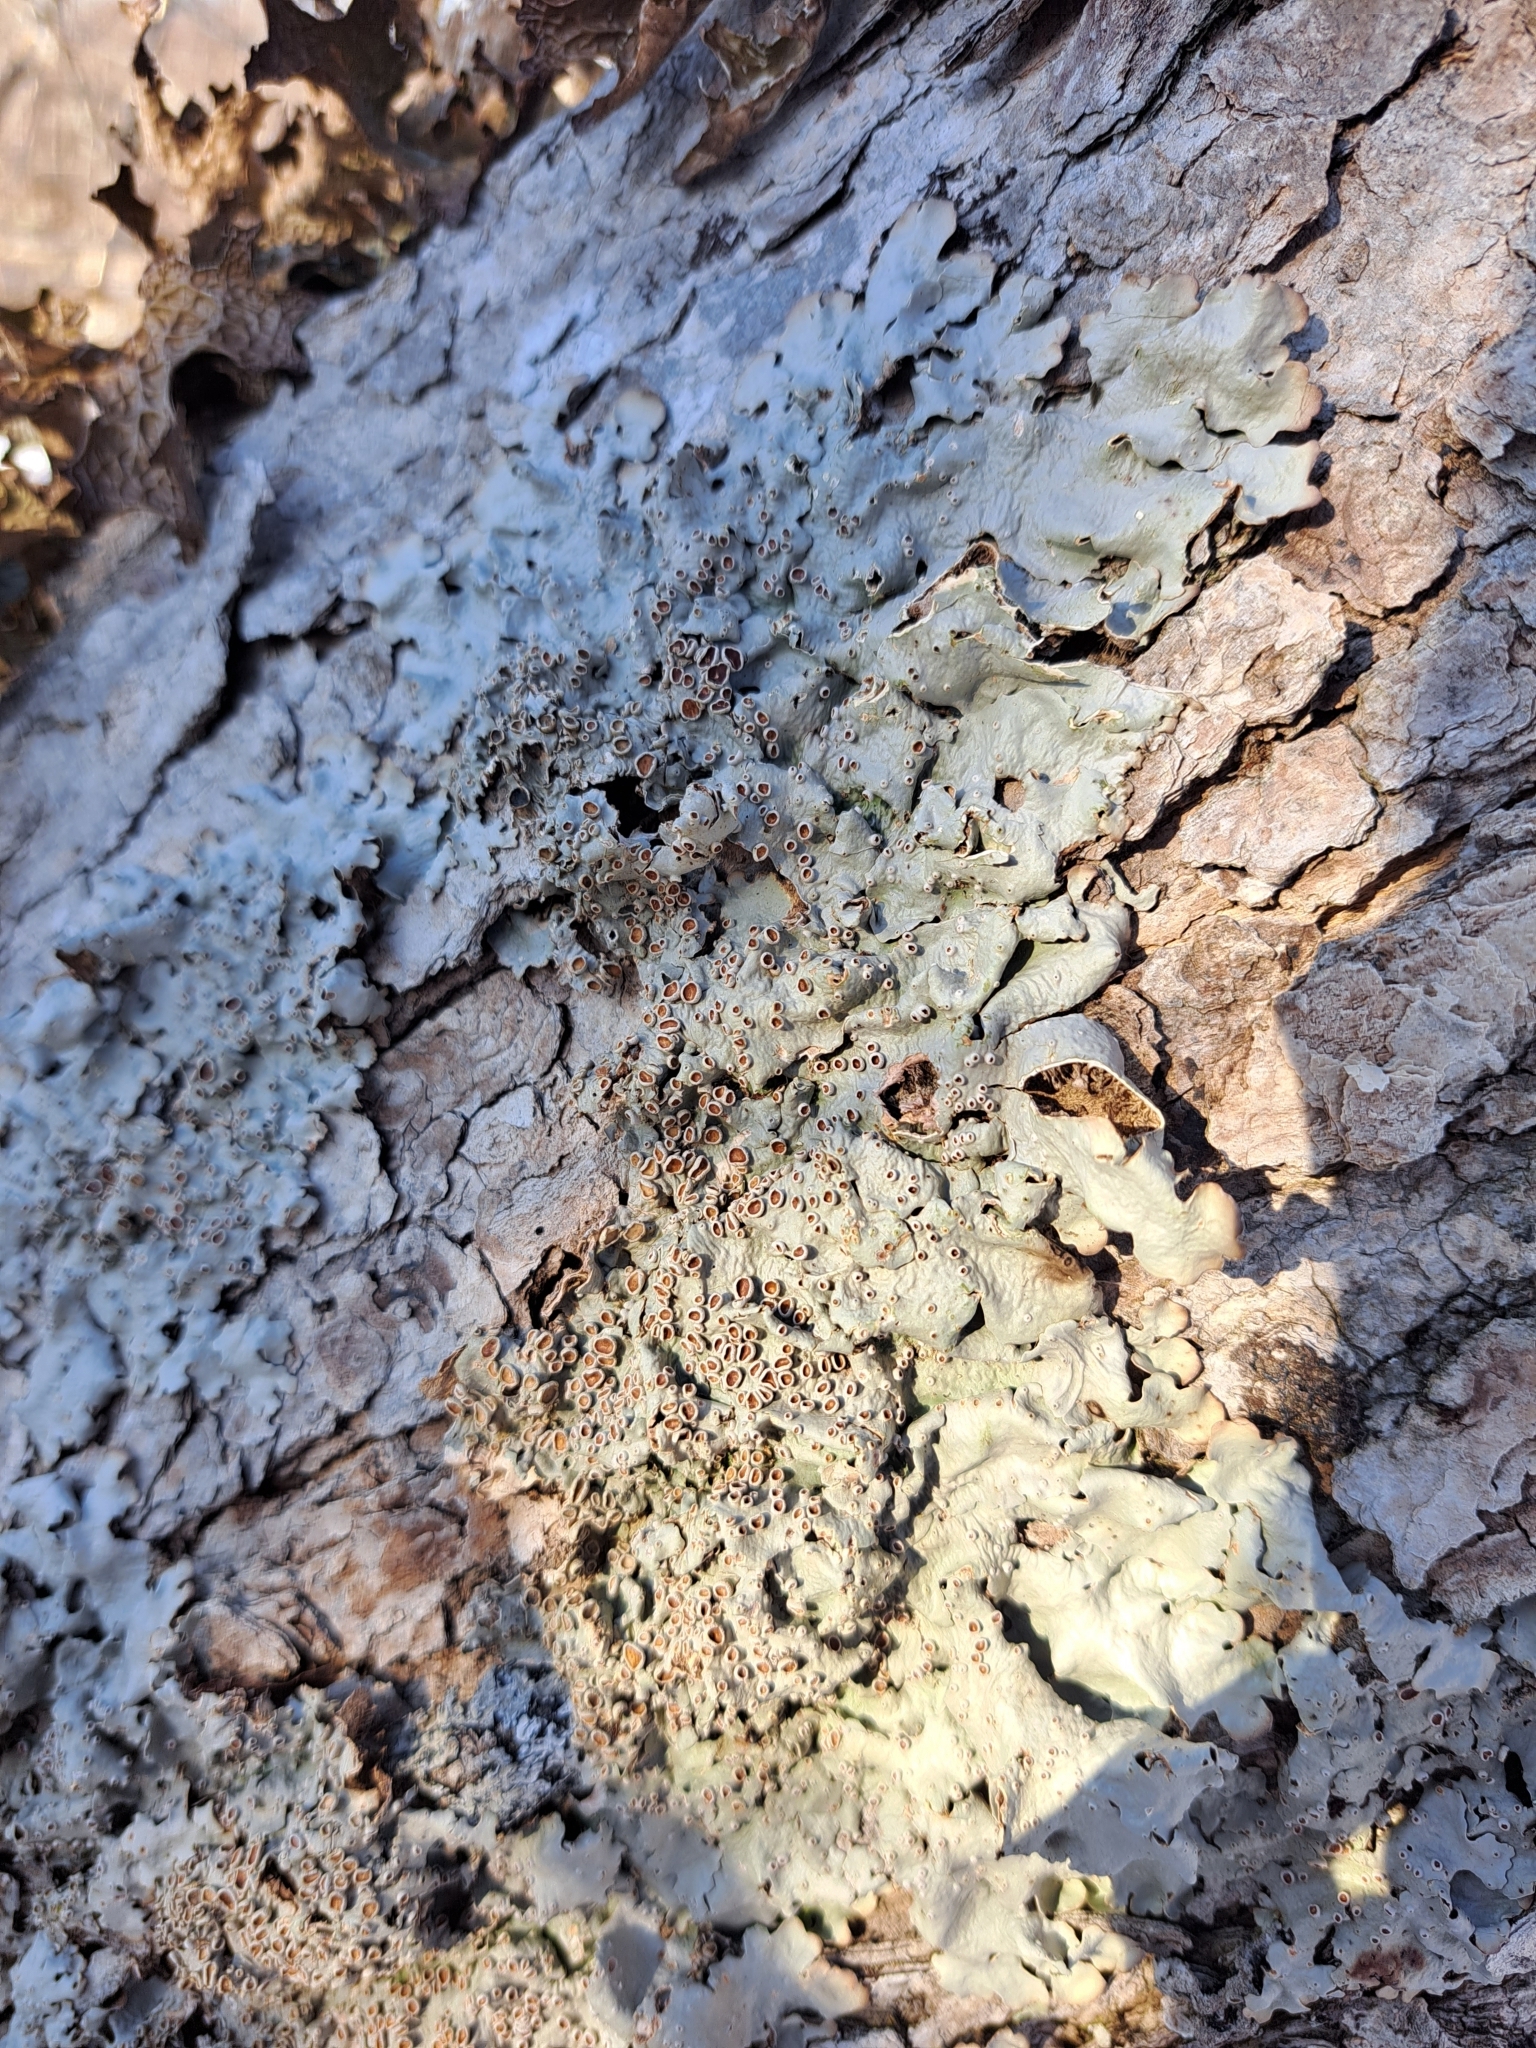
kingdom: Fungi
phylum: Ascomycota
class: Lecanoromycetes
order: Peltigerales
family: Lobariaceae
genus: Ricasolia
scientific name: Ricasolia quercizans
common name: Smooth lungwort
